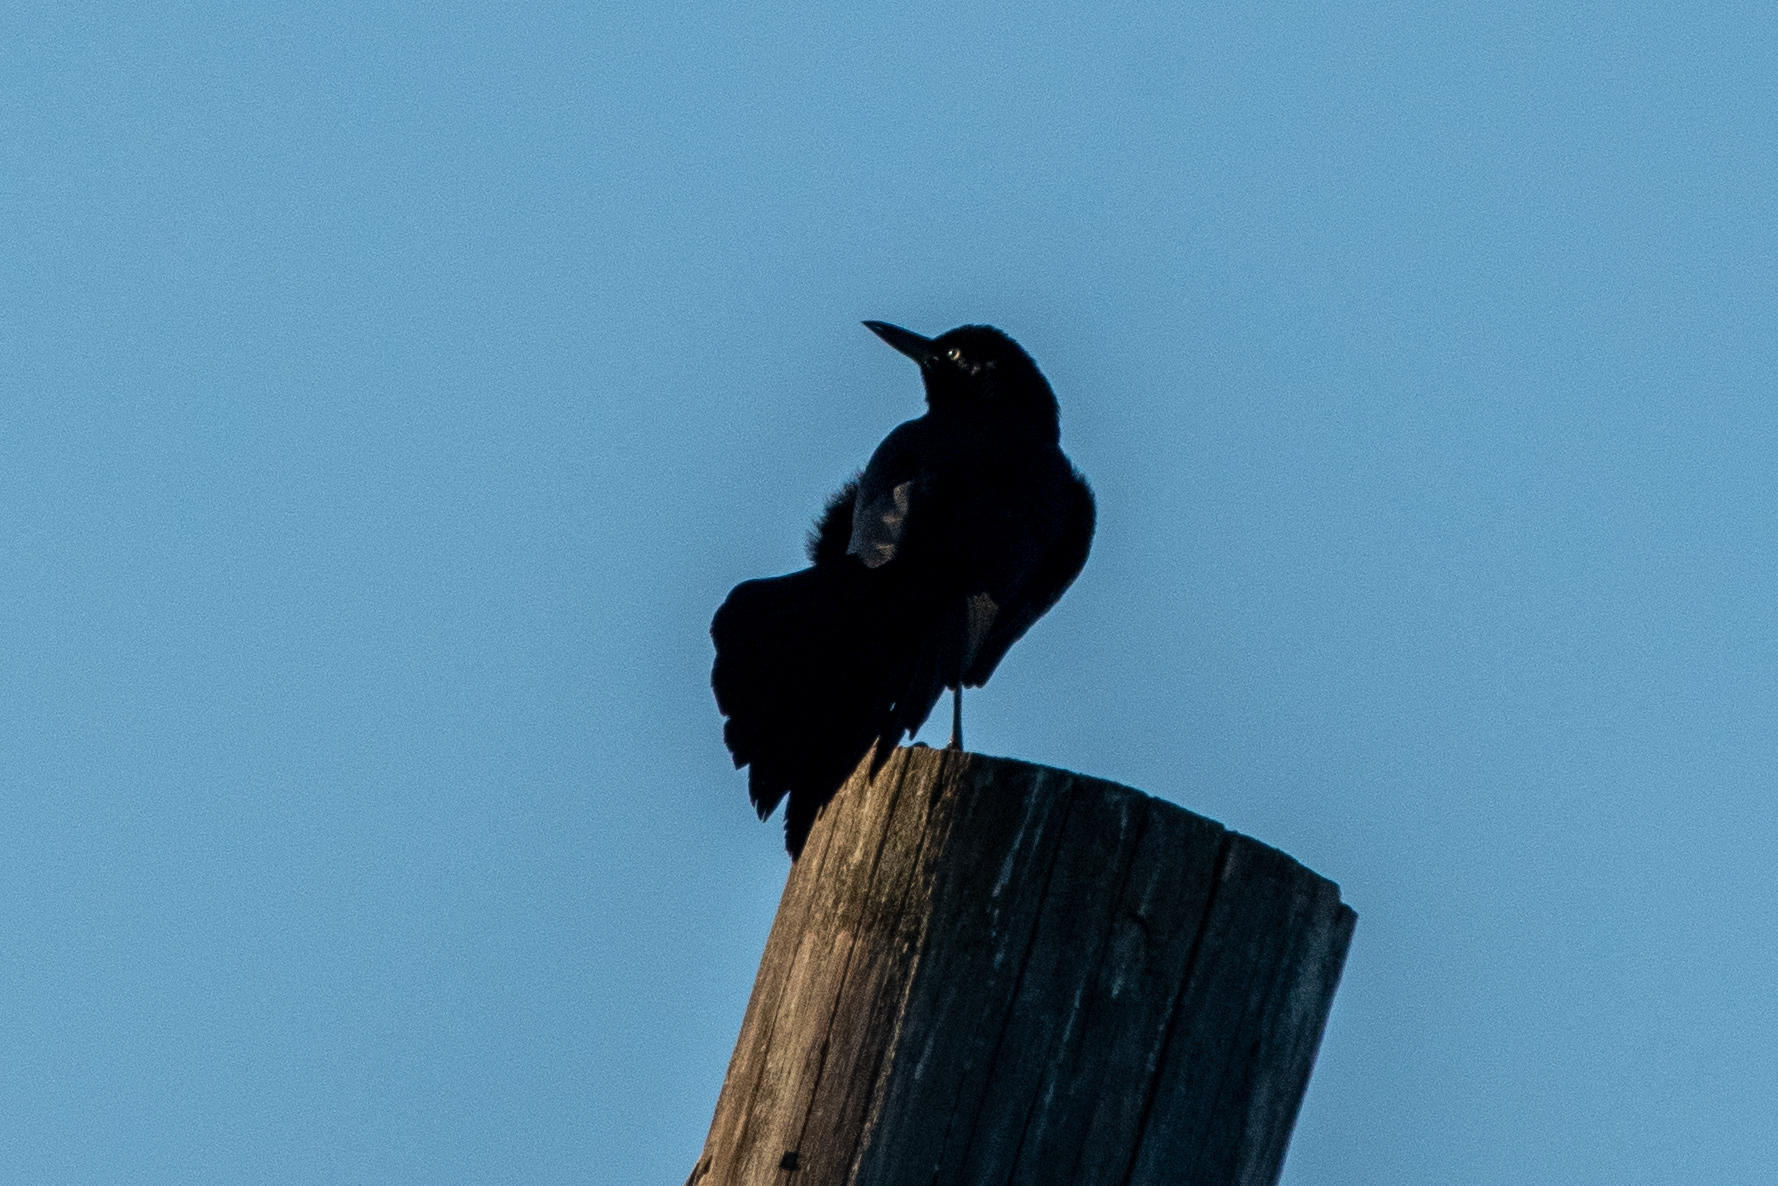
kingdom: Animalia
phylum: Chordata
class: Aves
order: Passeriformes
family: Icteridae
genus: Quiscalus
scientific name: Quiscalus mexicanus
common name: Great-tailed grackle
